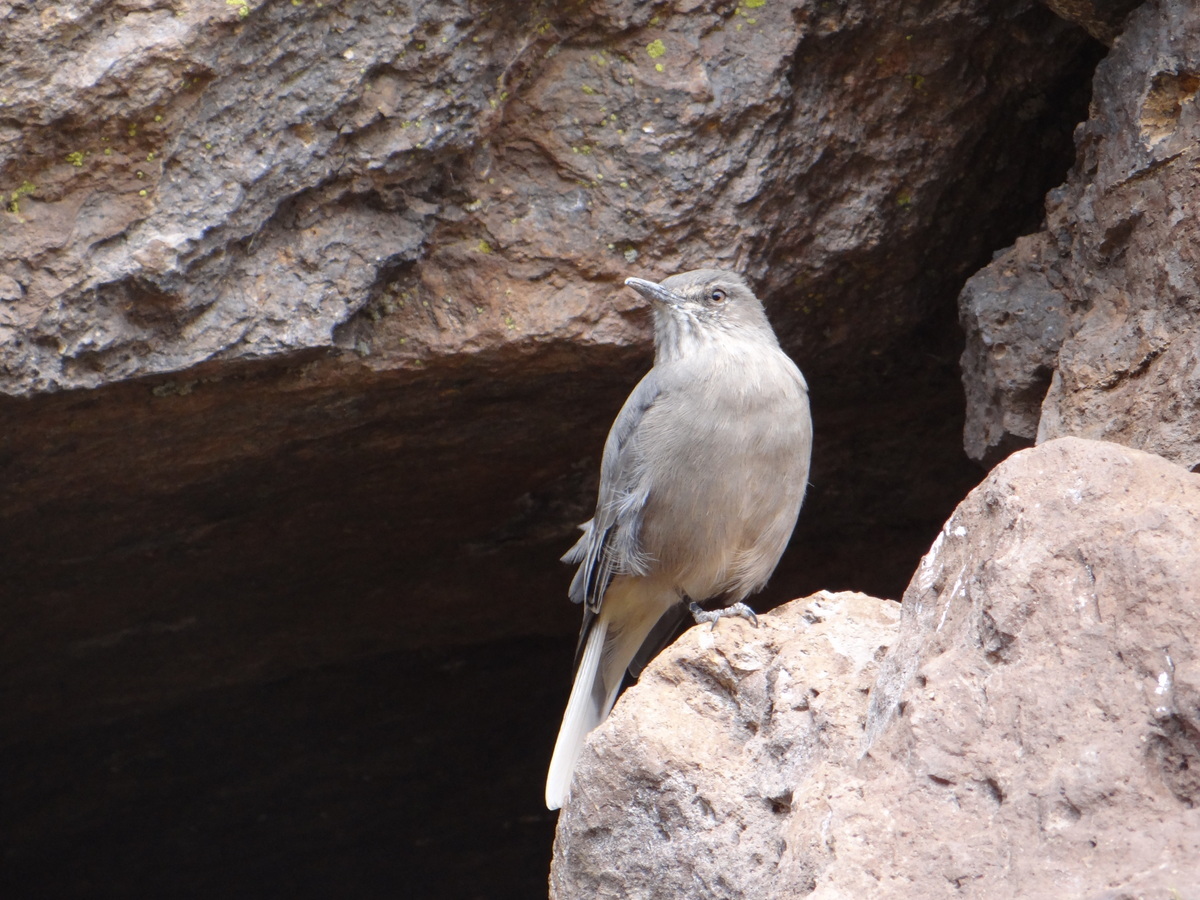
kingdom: Animalia
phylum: Chordata
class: Aves
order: Passeriformes
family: Tyrannidae
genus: Agriornis
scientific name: Agriornis montanus
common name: Black-billed shrike-tyrant
